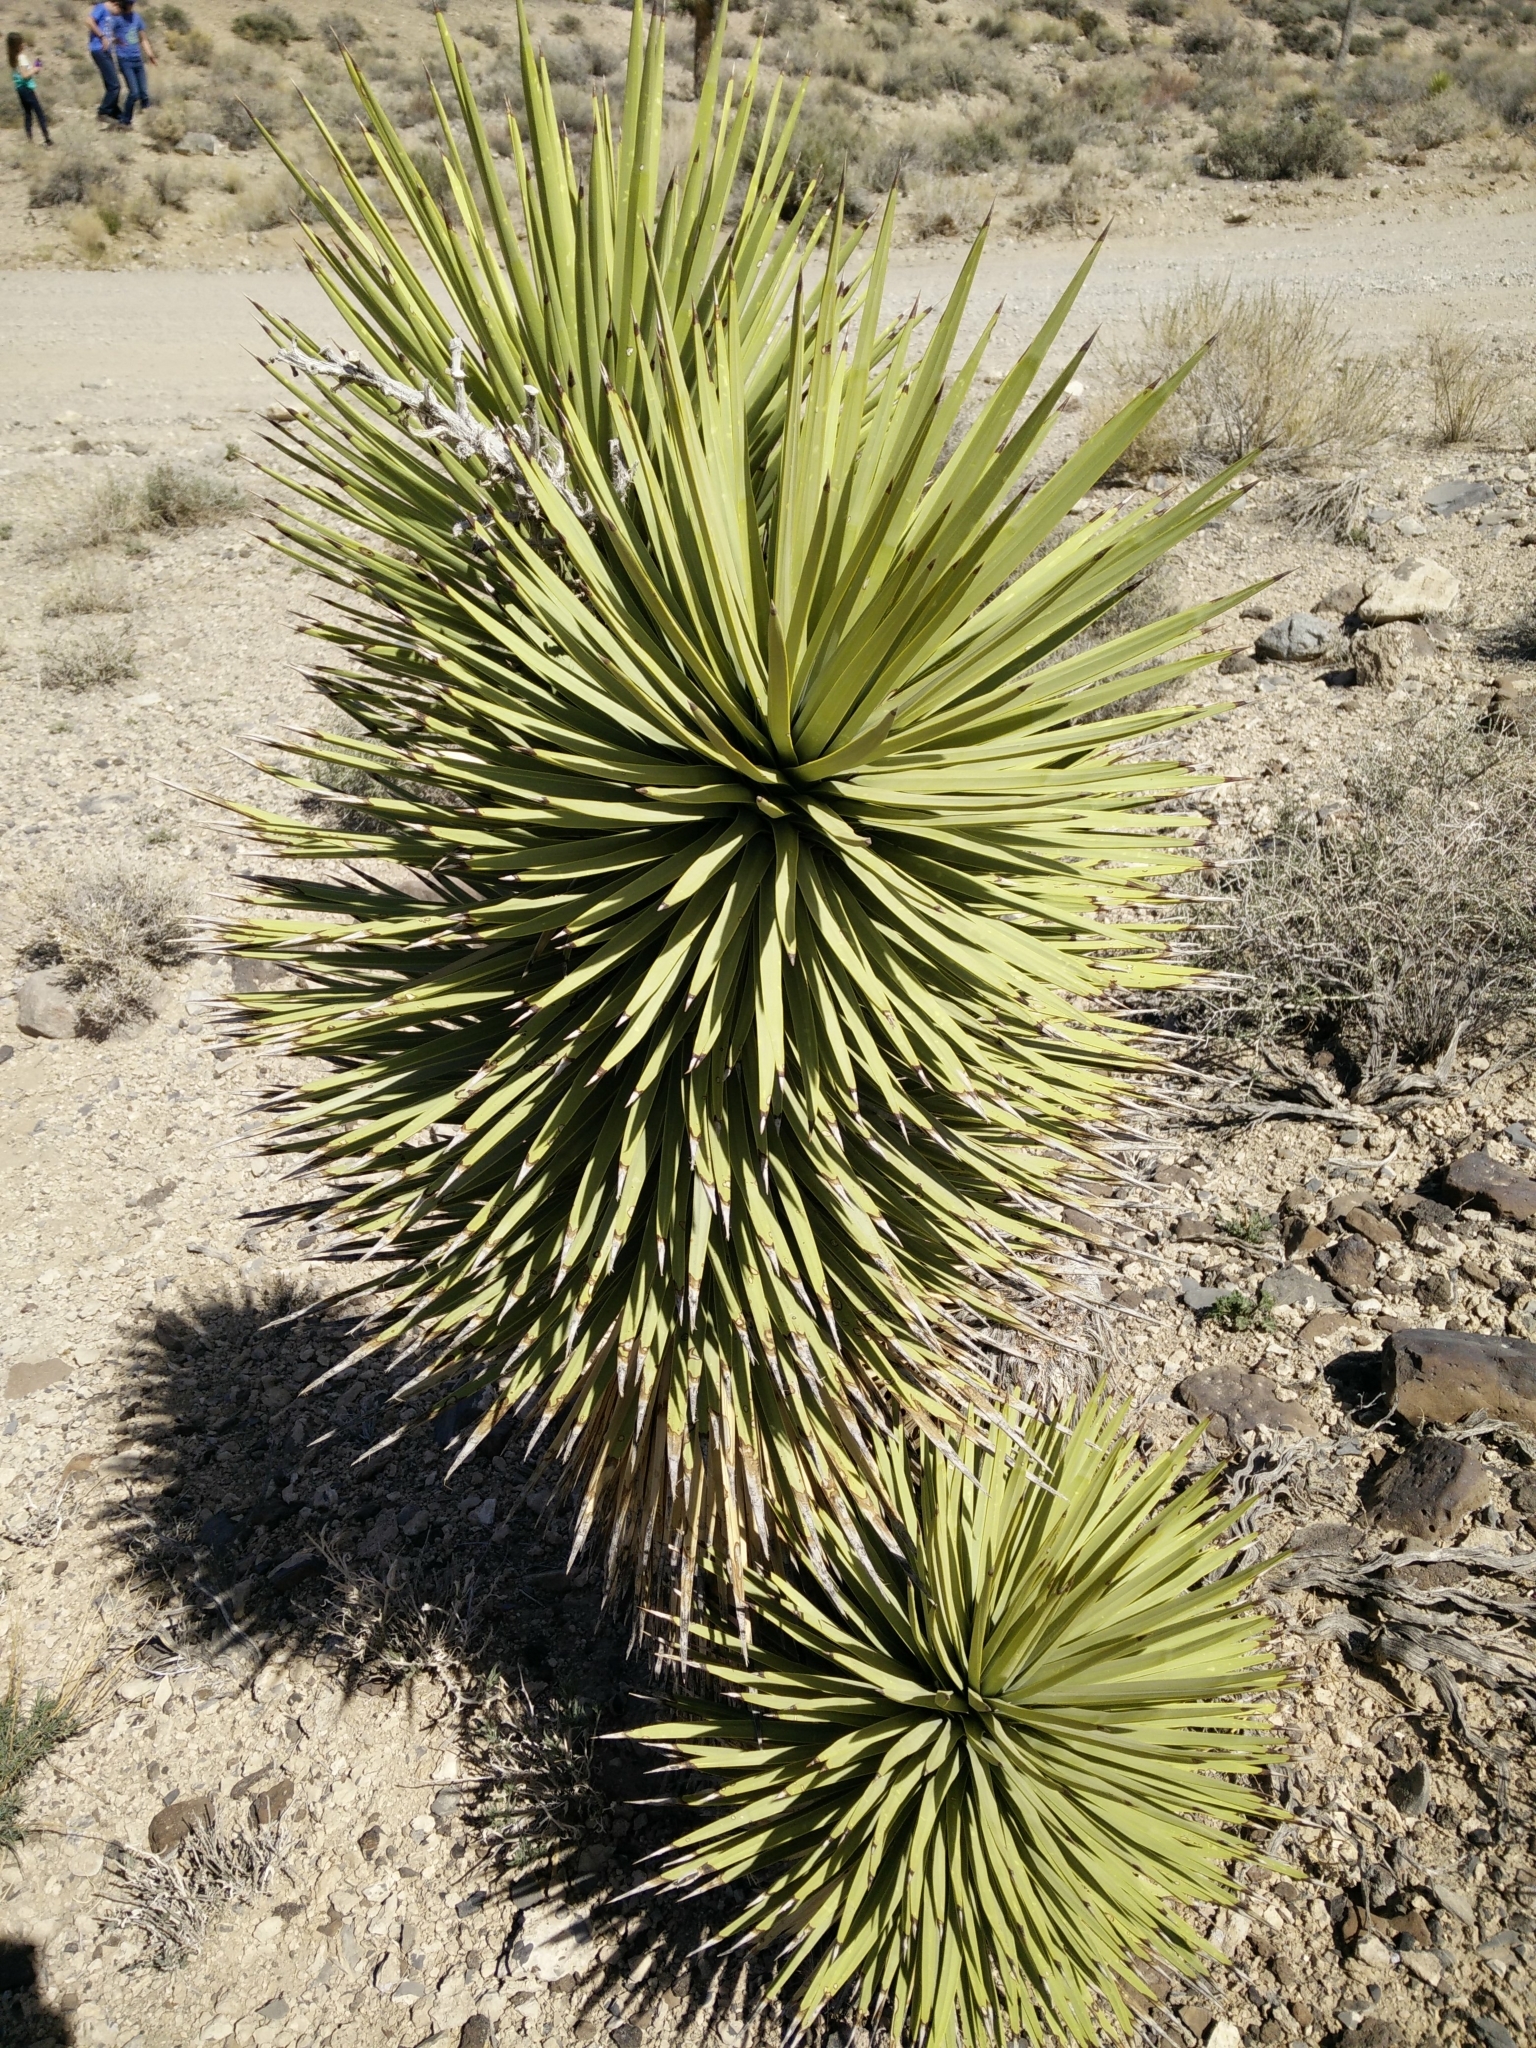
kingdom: Plantae
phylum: Tracheophyta
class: Liliopsida
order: Asparagales
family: Asparagaceae
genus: Yucca
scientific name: Yucca brevifolia
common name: Joshua tree
